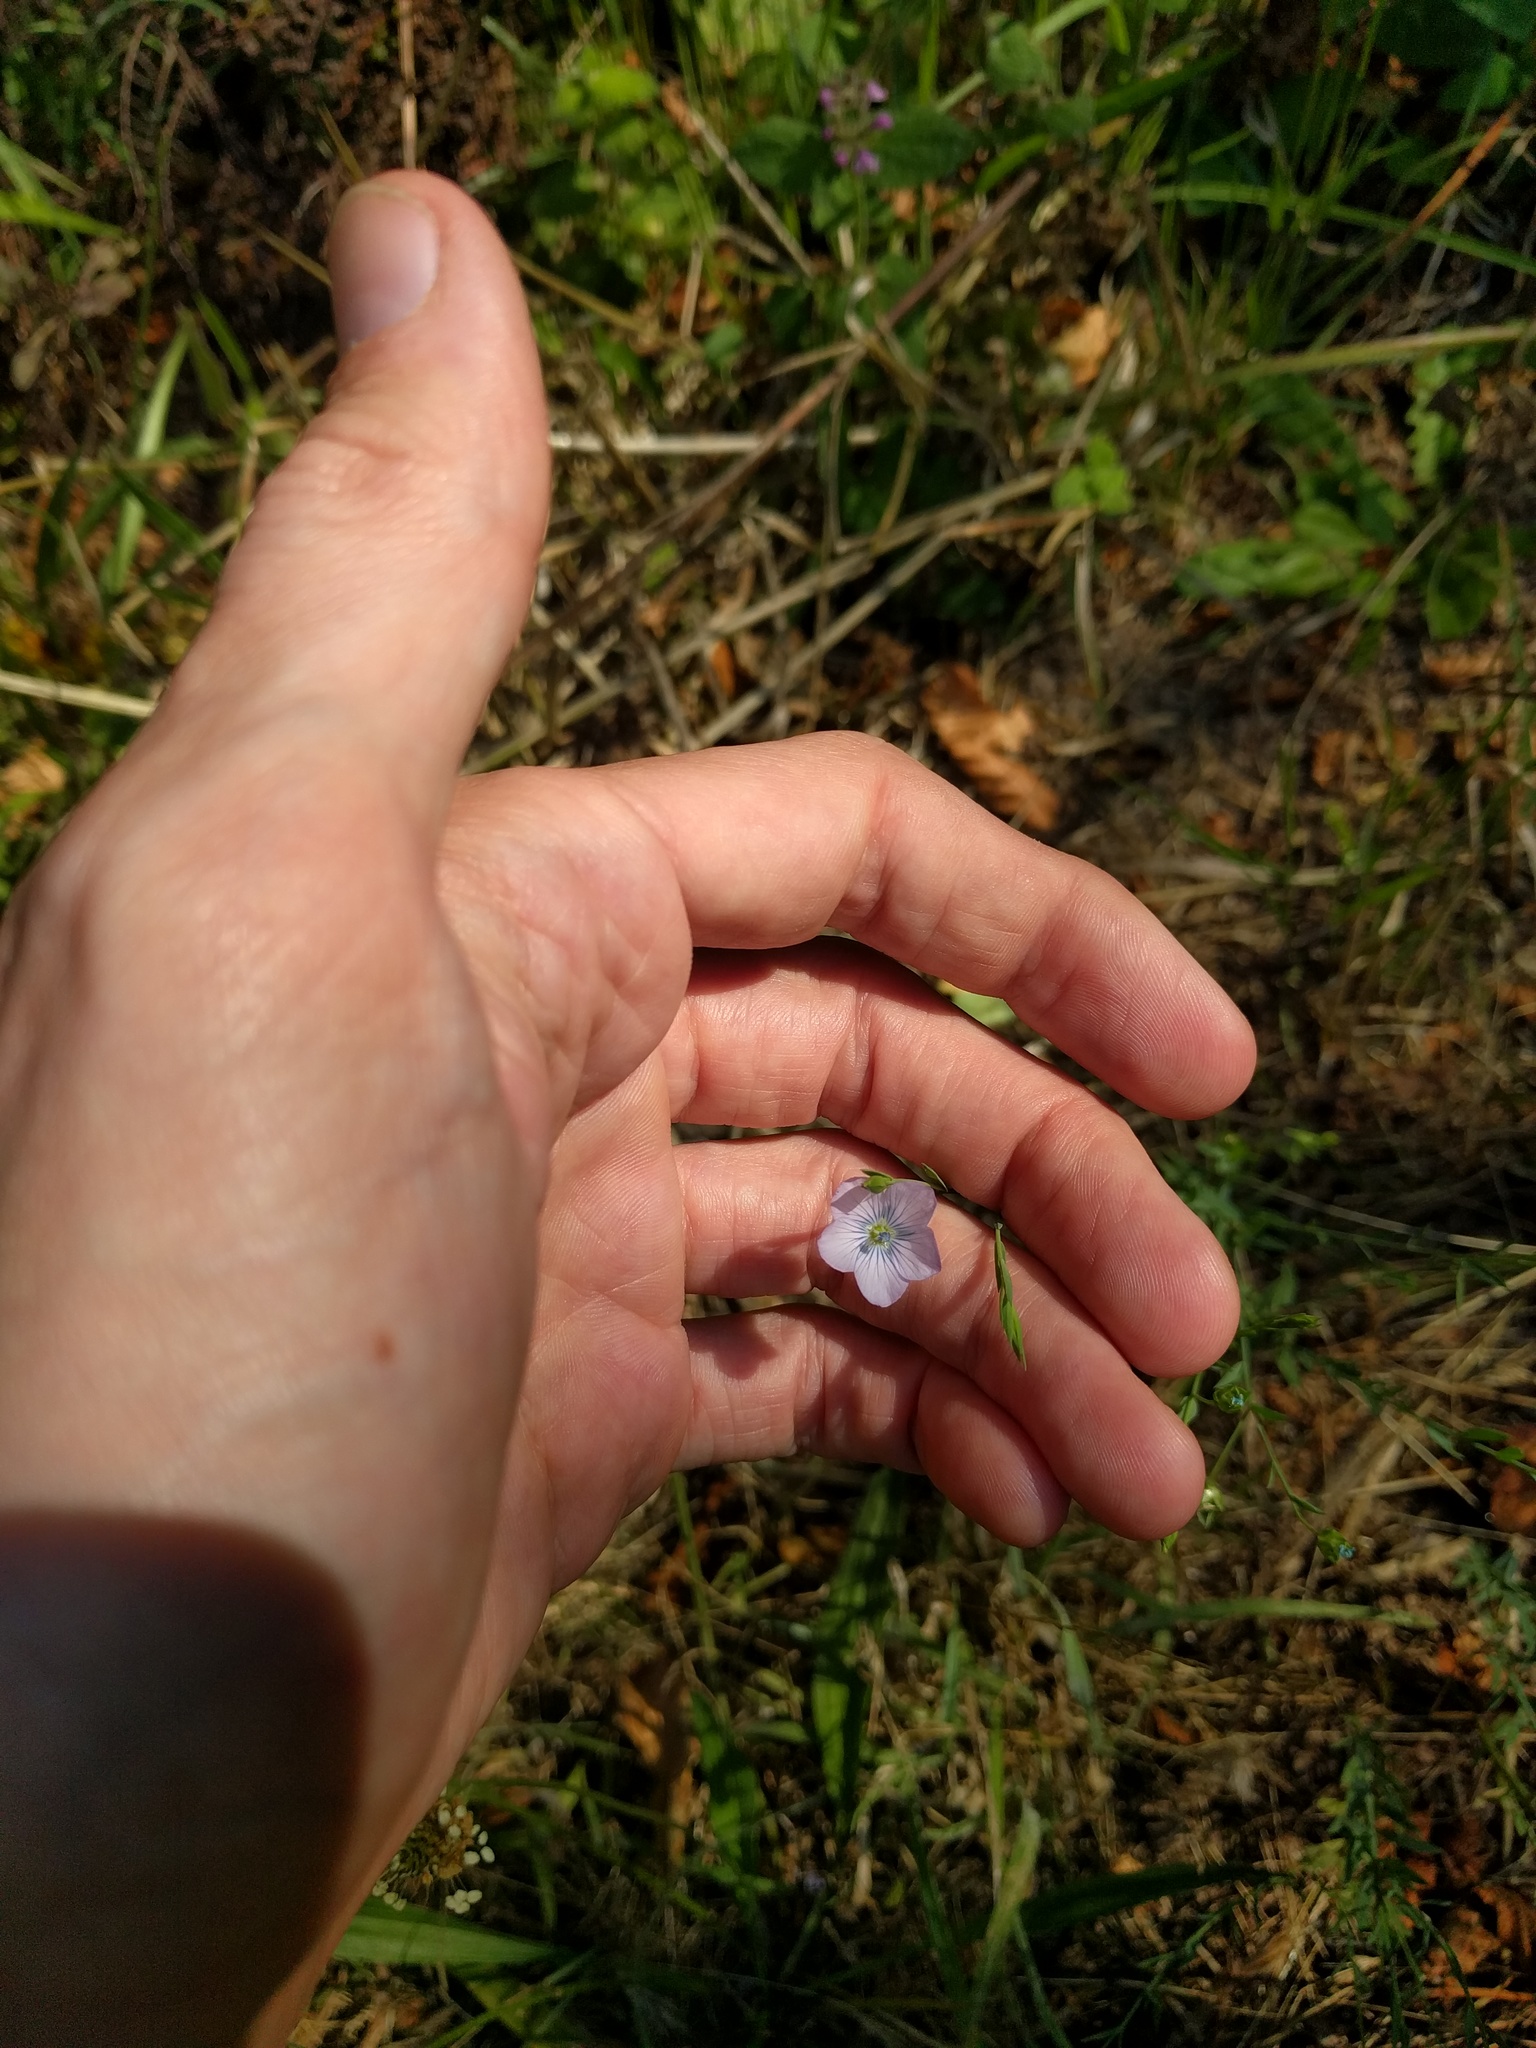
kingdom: Plantae
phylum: Tracheophyta
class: Magnoliopsida
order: Malpighiales
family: Linaceae
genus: Linum
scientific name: Linum bienne
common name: Pale flax
